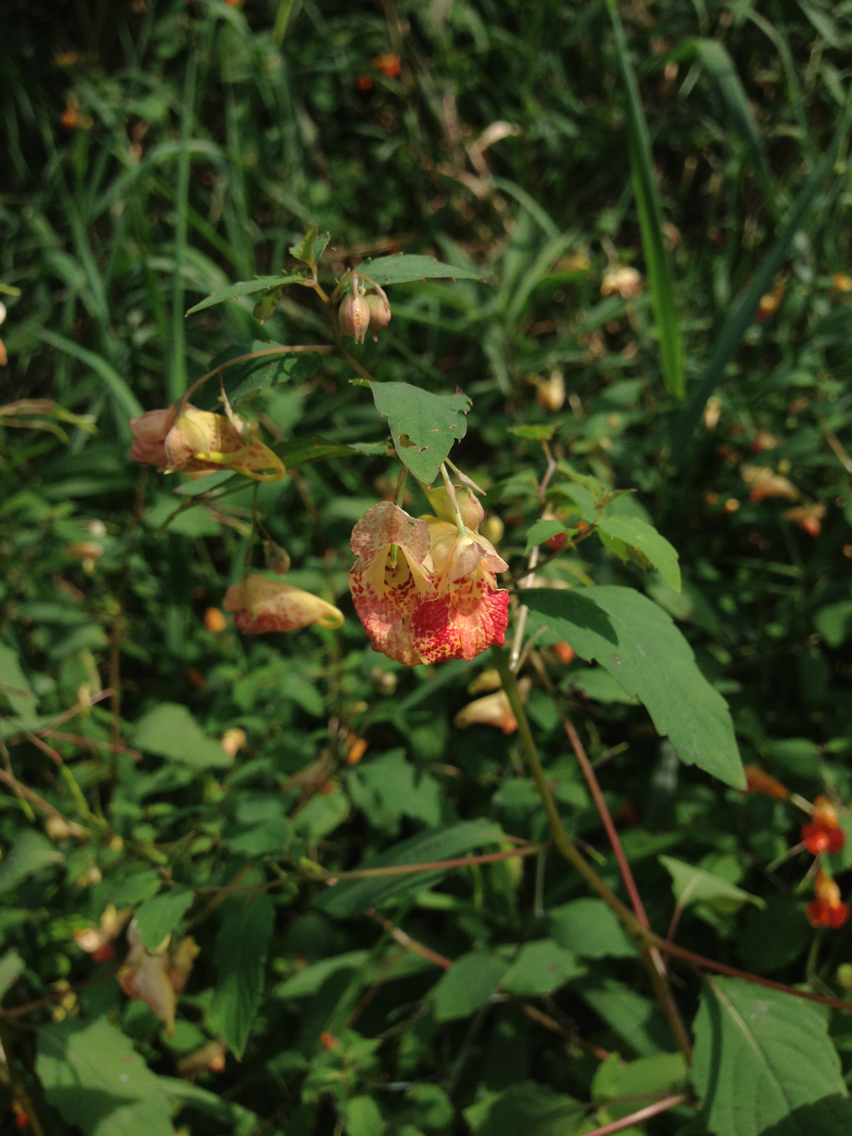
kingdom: Plantae
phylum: Tracheophyta
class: Magnoliopsida
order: Ericales
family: Balsaminaceae
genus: Impatiens
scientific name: Impatiens capensis
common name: Orange balsam
